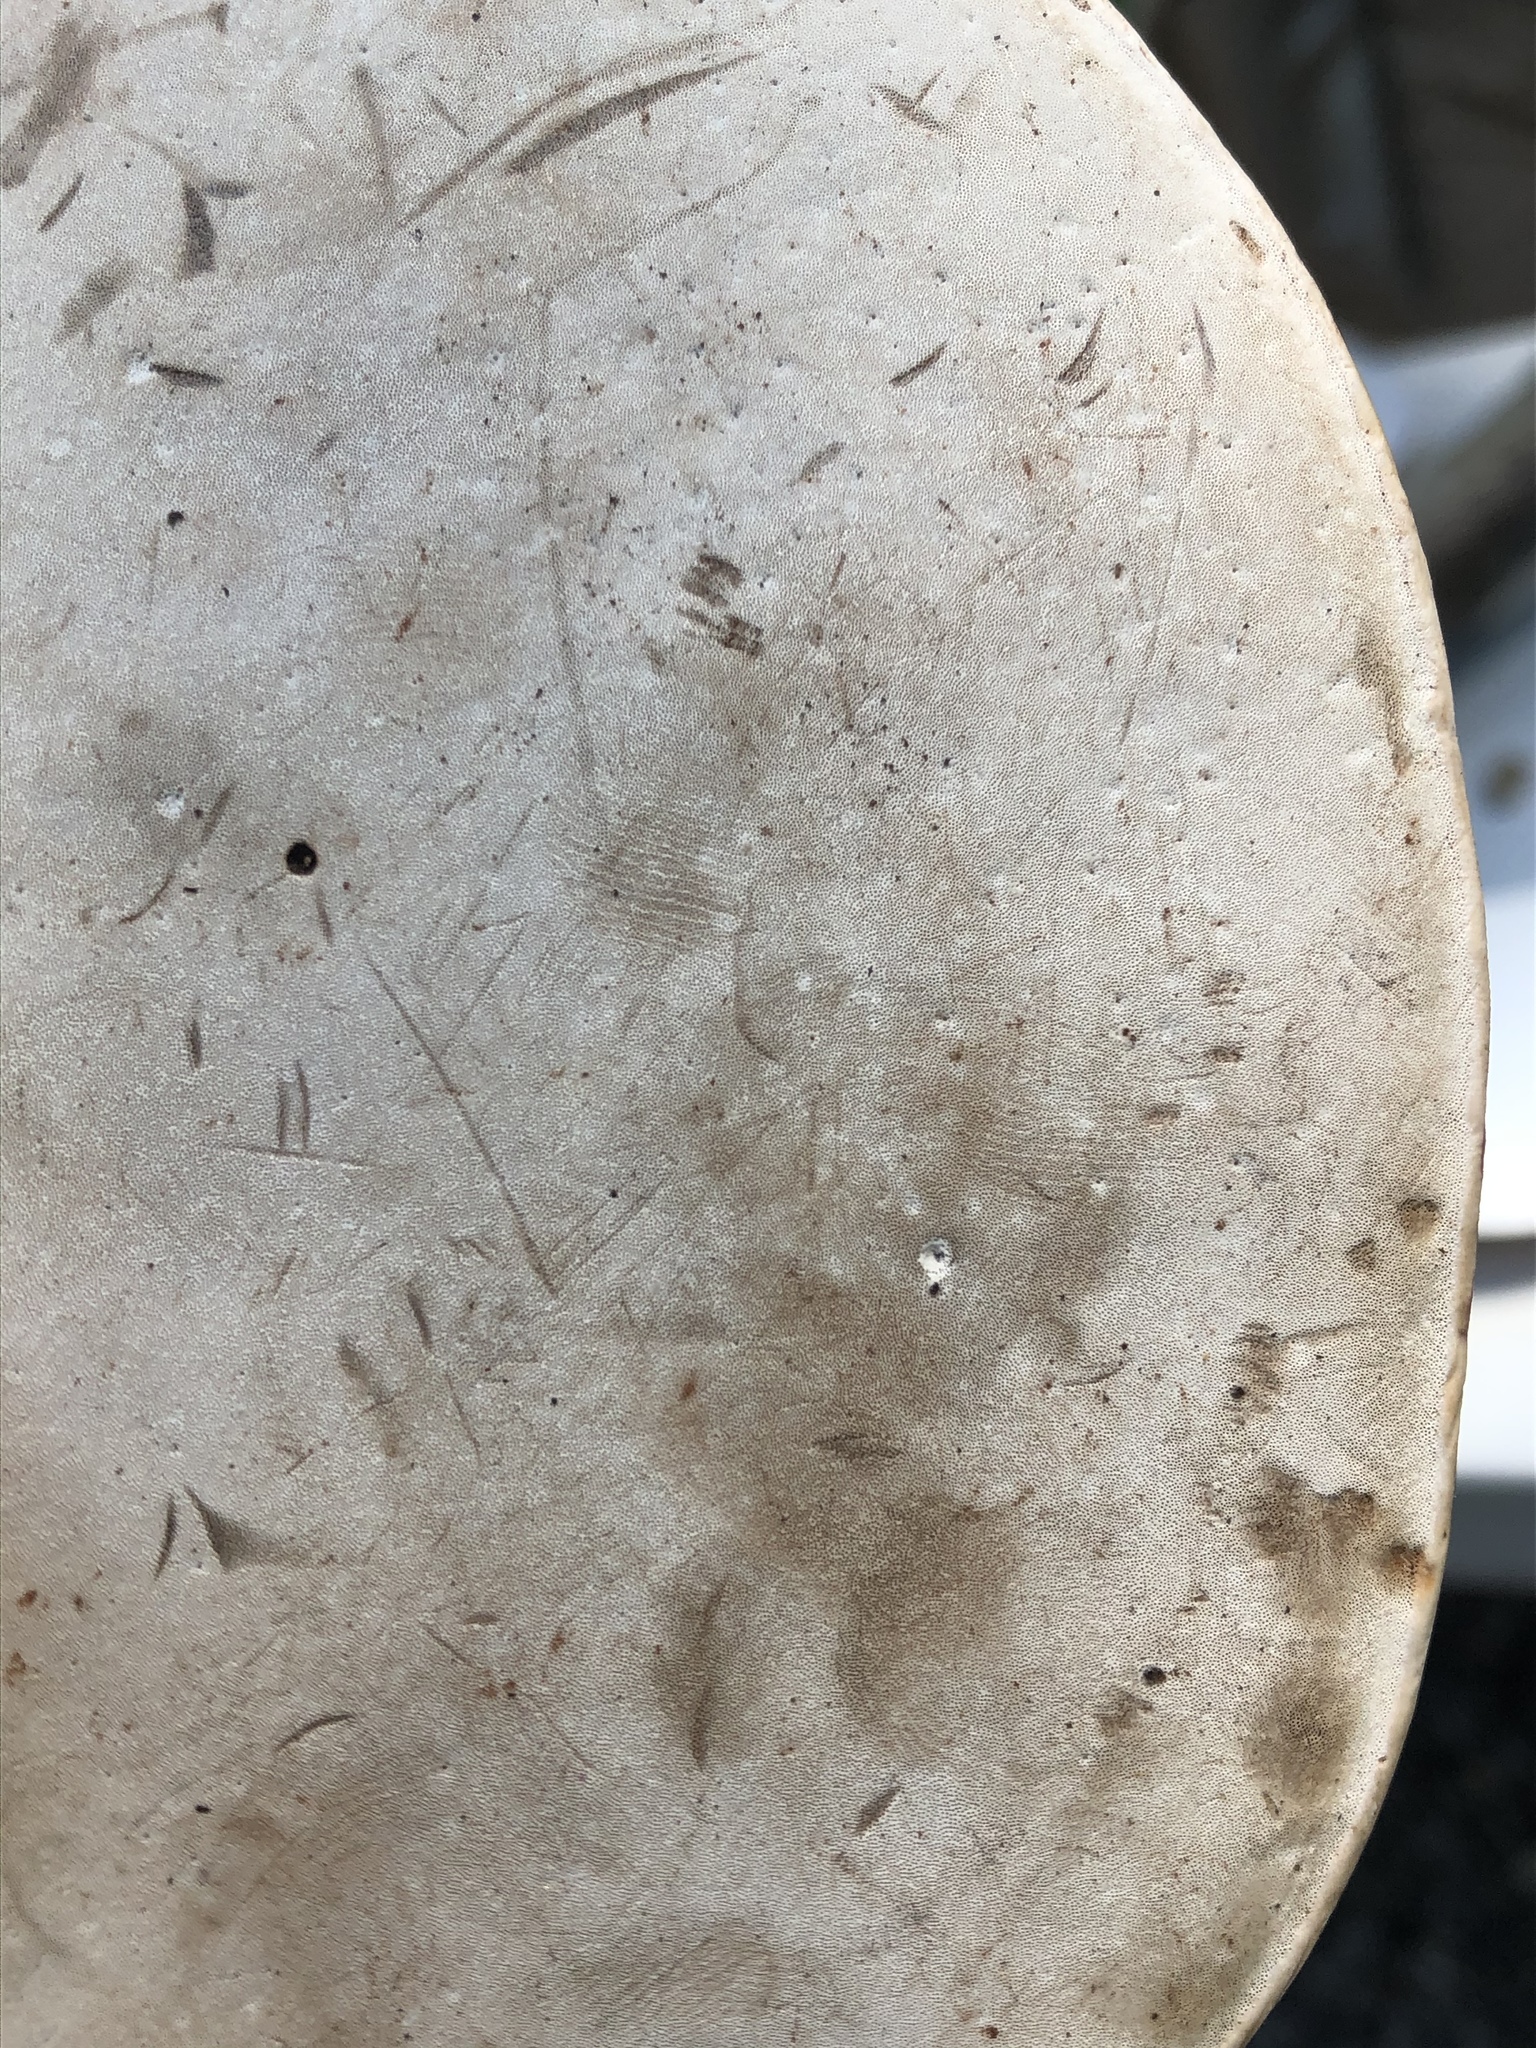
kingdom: Fungi
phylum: Basidiomycota
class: Agaricomycetes
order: Polyporales
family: Polyporaceae
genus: Ganoderma
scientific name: Ganoderma lobatum
